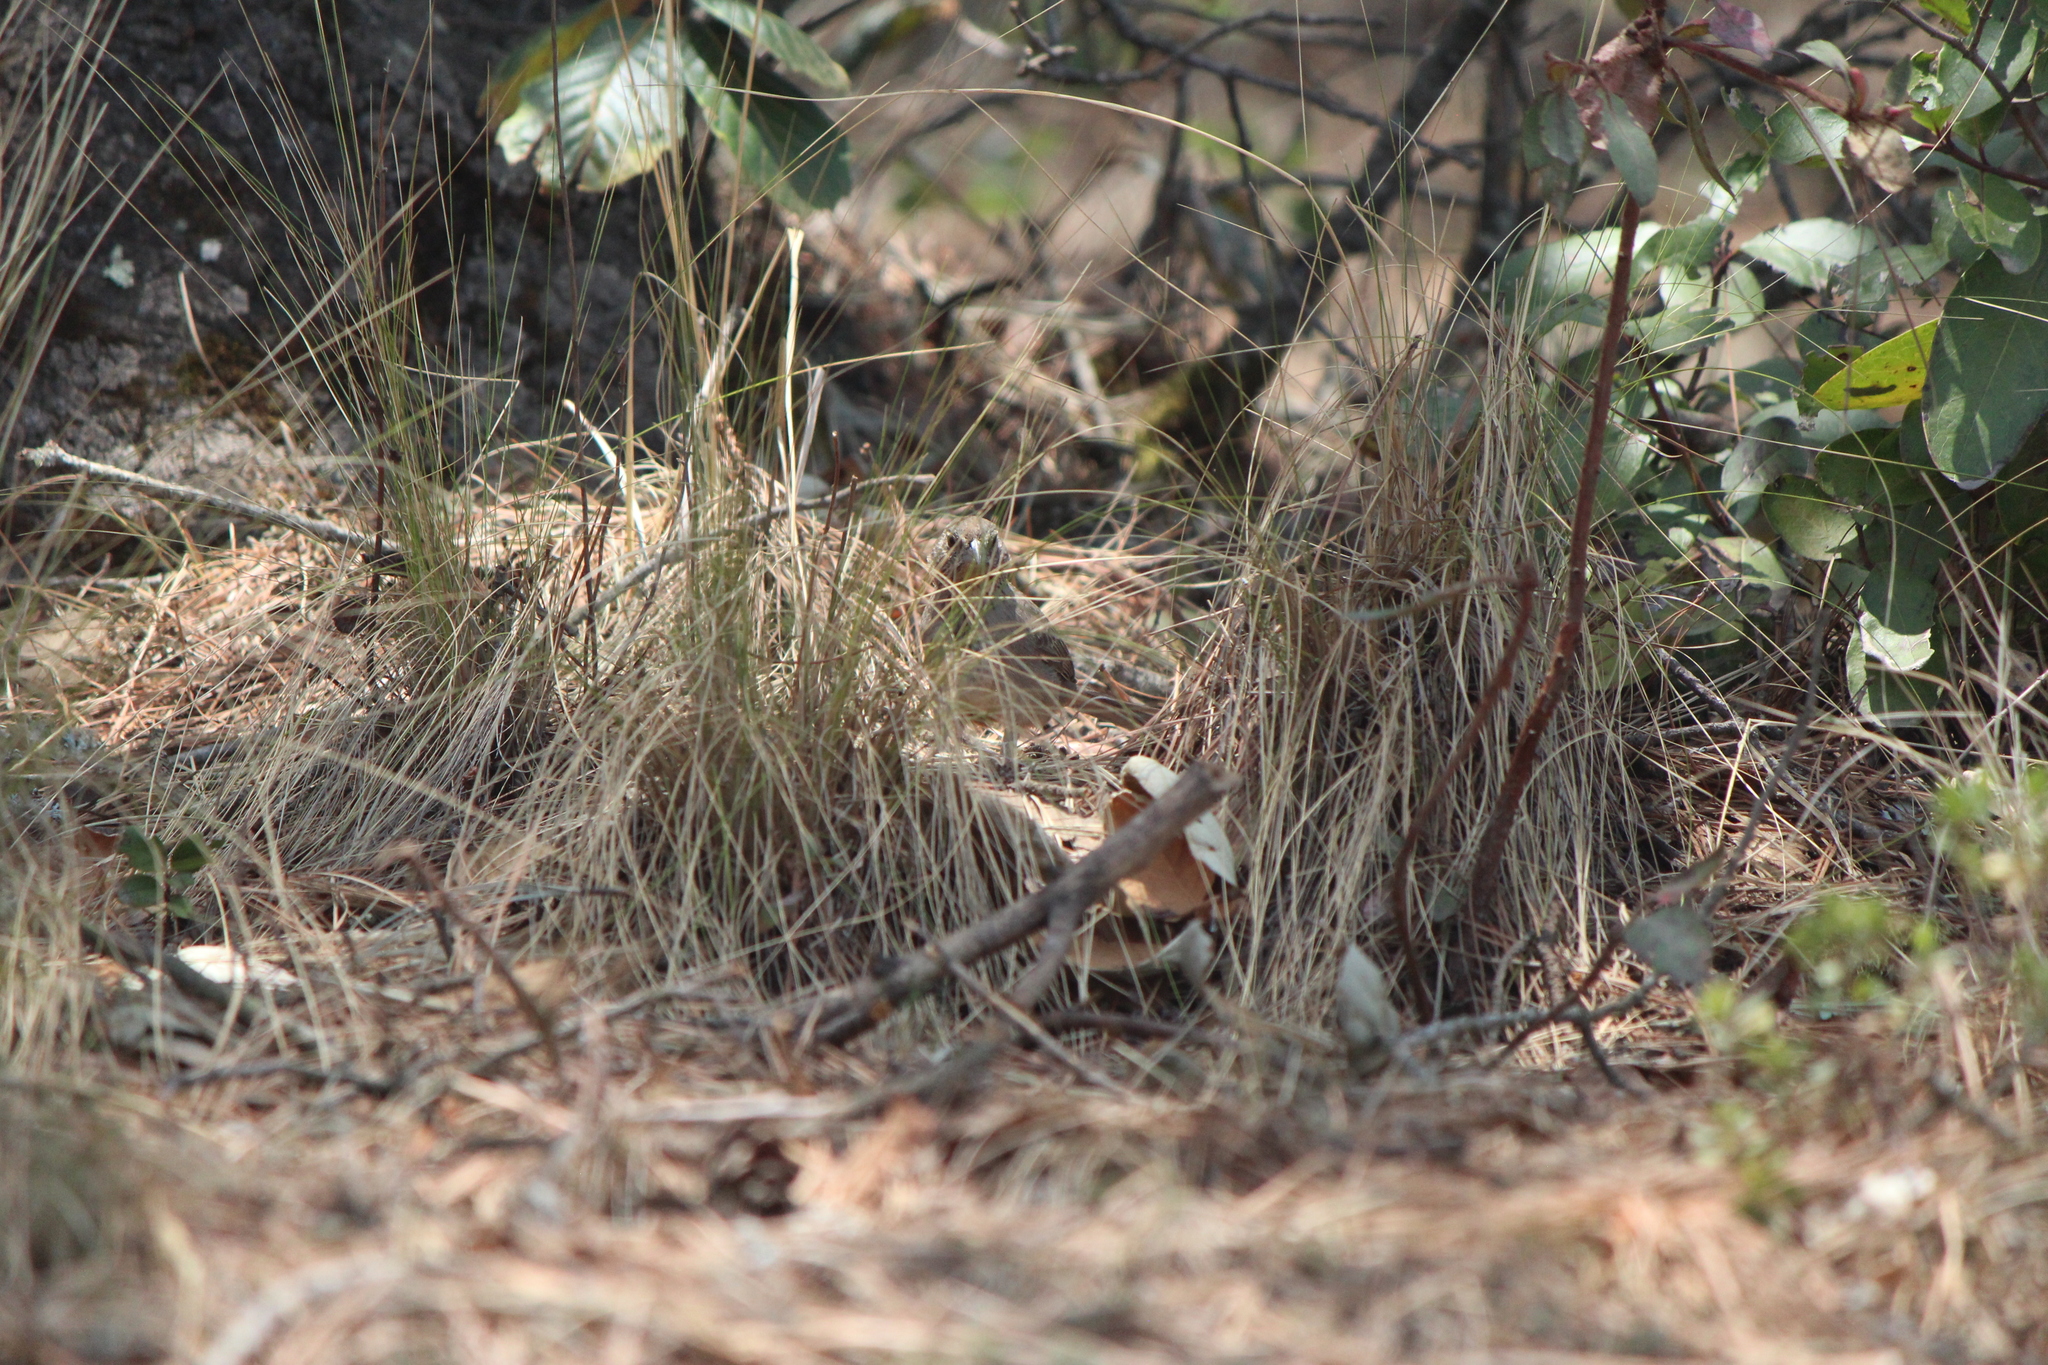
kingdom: Animalia
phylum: Chordata
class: Aves
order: Passeriformes
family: Passerellidae
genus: Melozone
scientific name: Melozone fusca
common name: Canyon towhee
